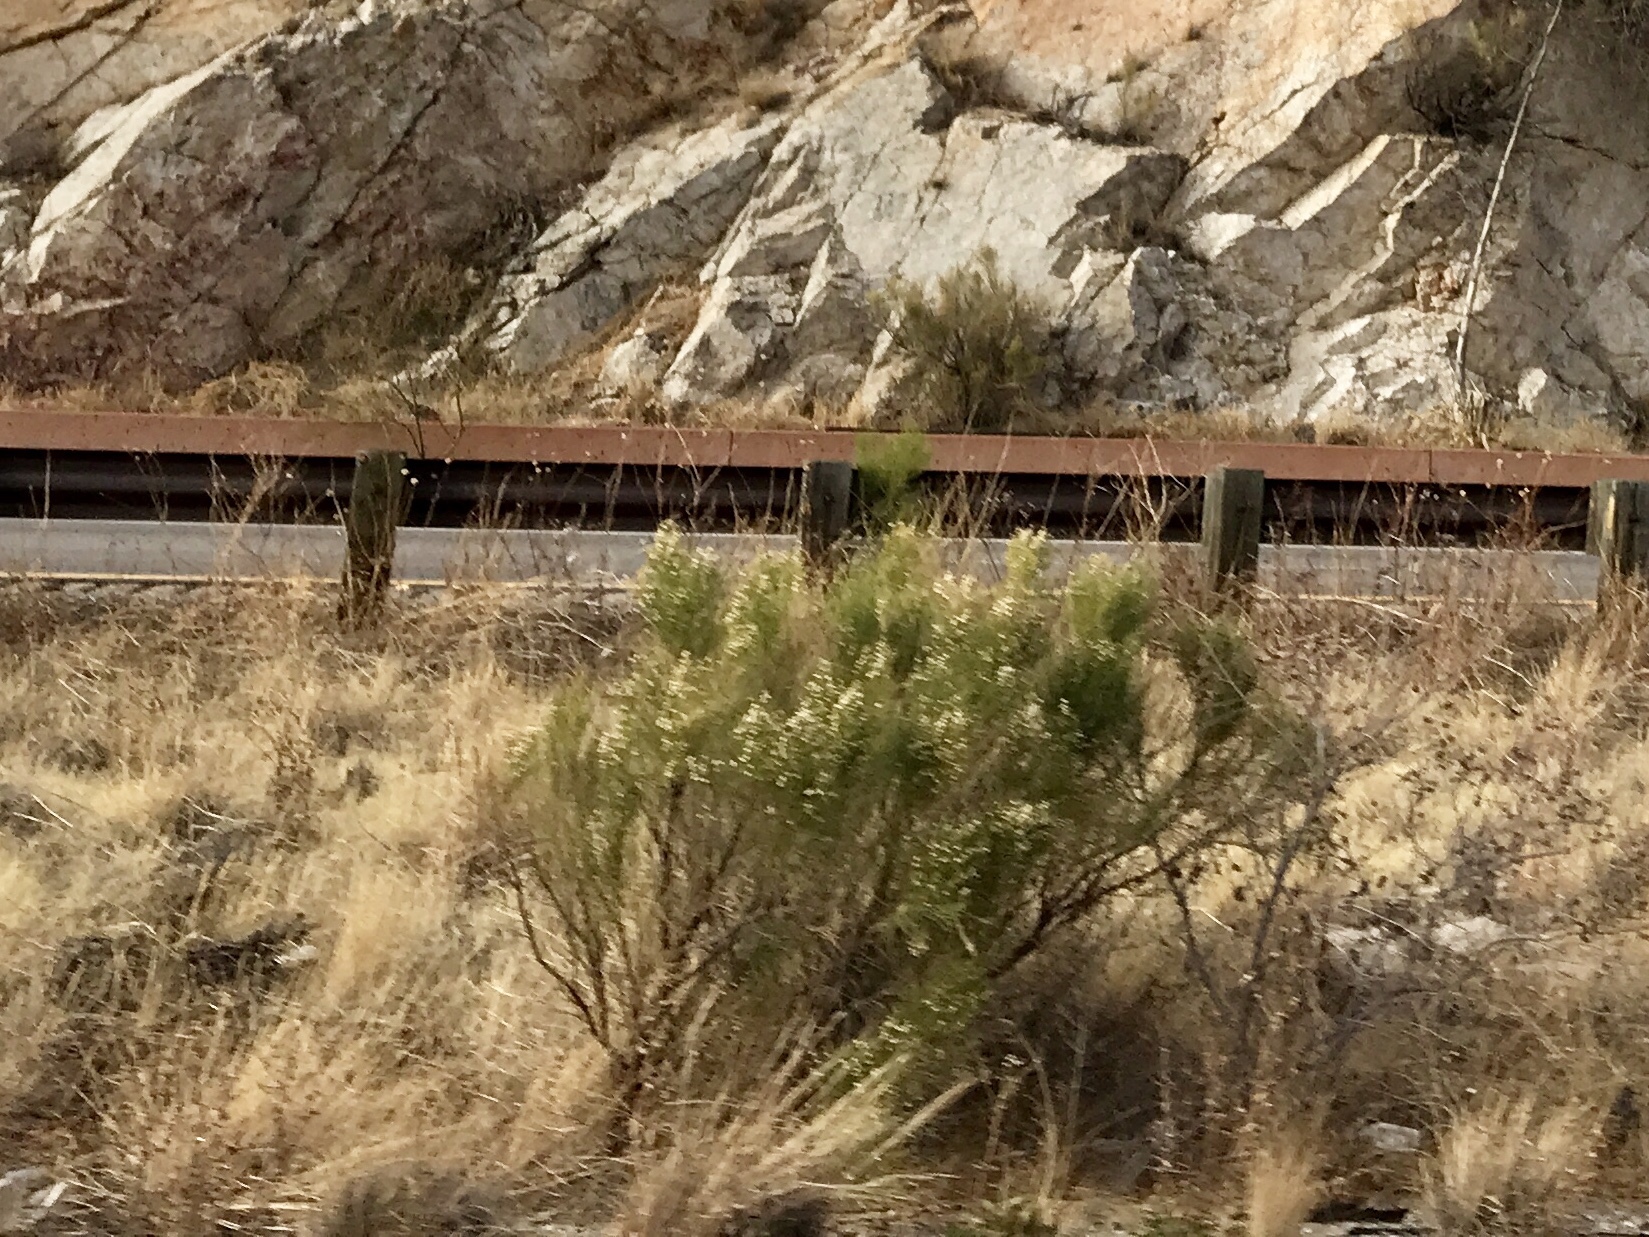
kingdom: Plantae
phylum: Tracheophyta
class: Magnoliopsida
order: Asterales
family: Asteraceae
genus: Baccharis
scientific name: Baccharis sarothroides
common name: Desert-broom
